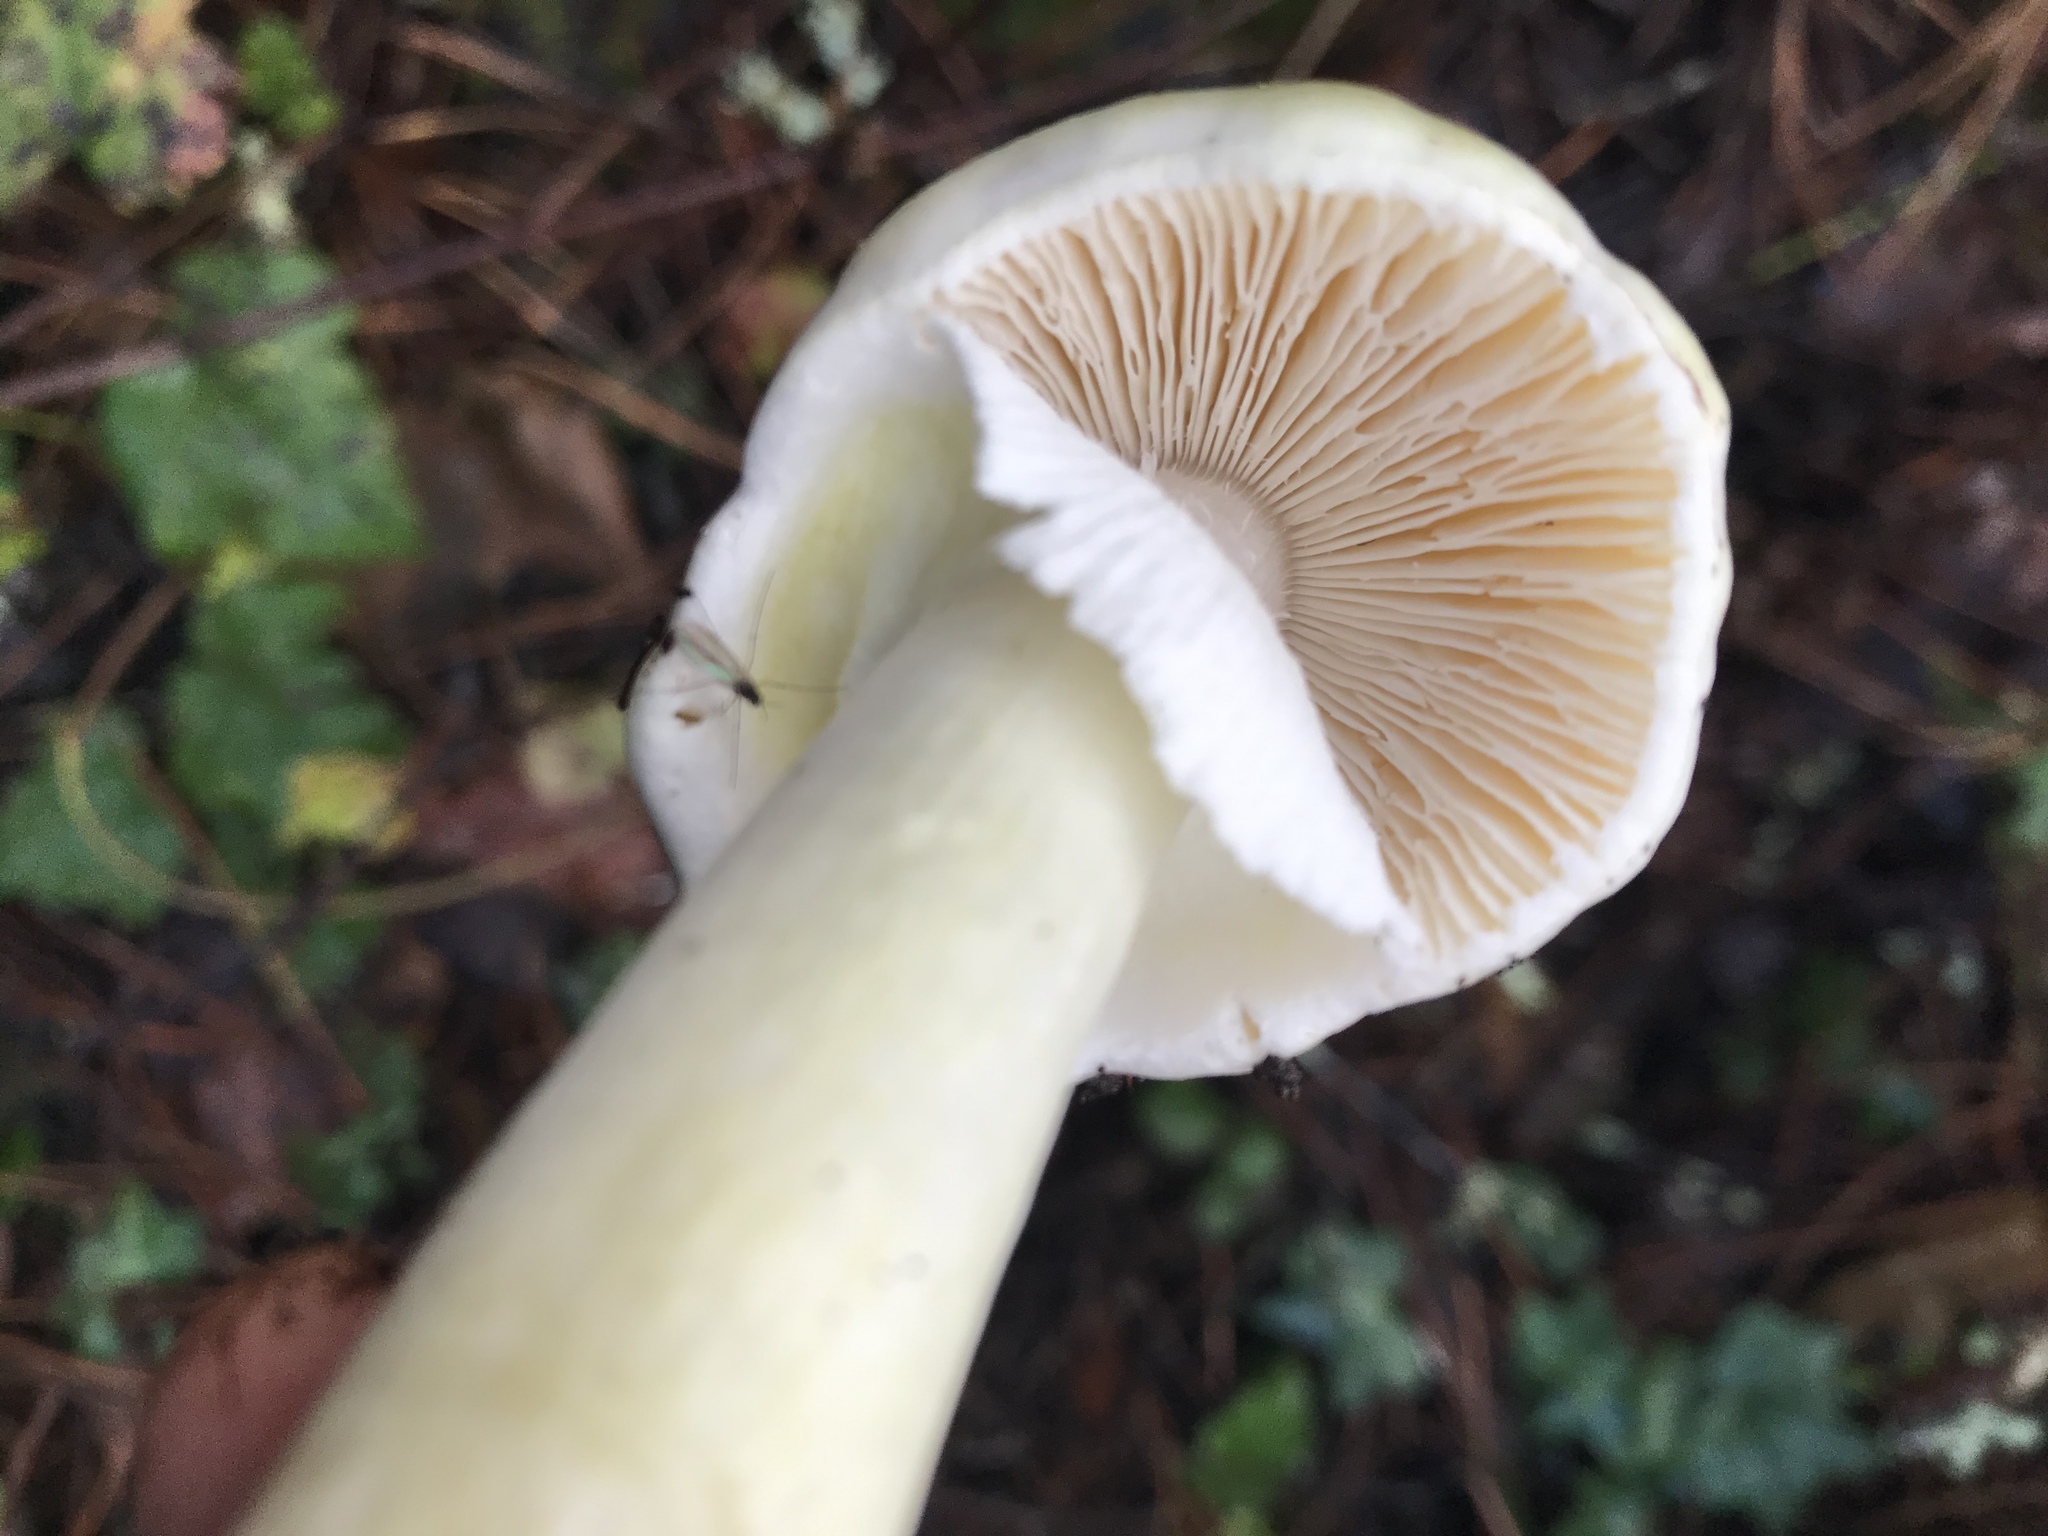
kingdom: Fungi
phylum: Basidiomycota
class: Agaricomycetes
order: Agaricales
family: Amanitaceae
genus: Amanita
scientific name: Amanita phalloides
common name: Death cap
